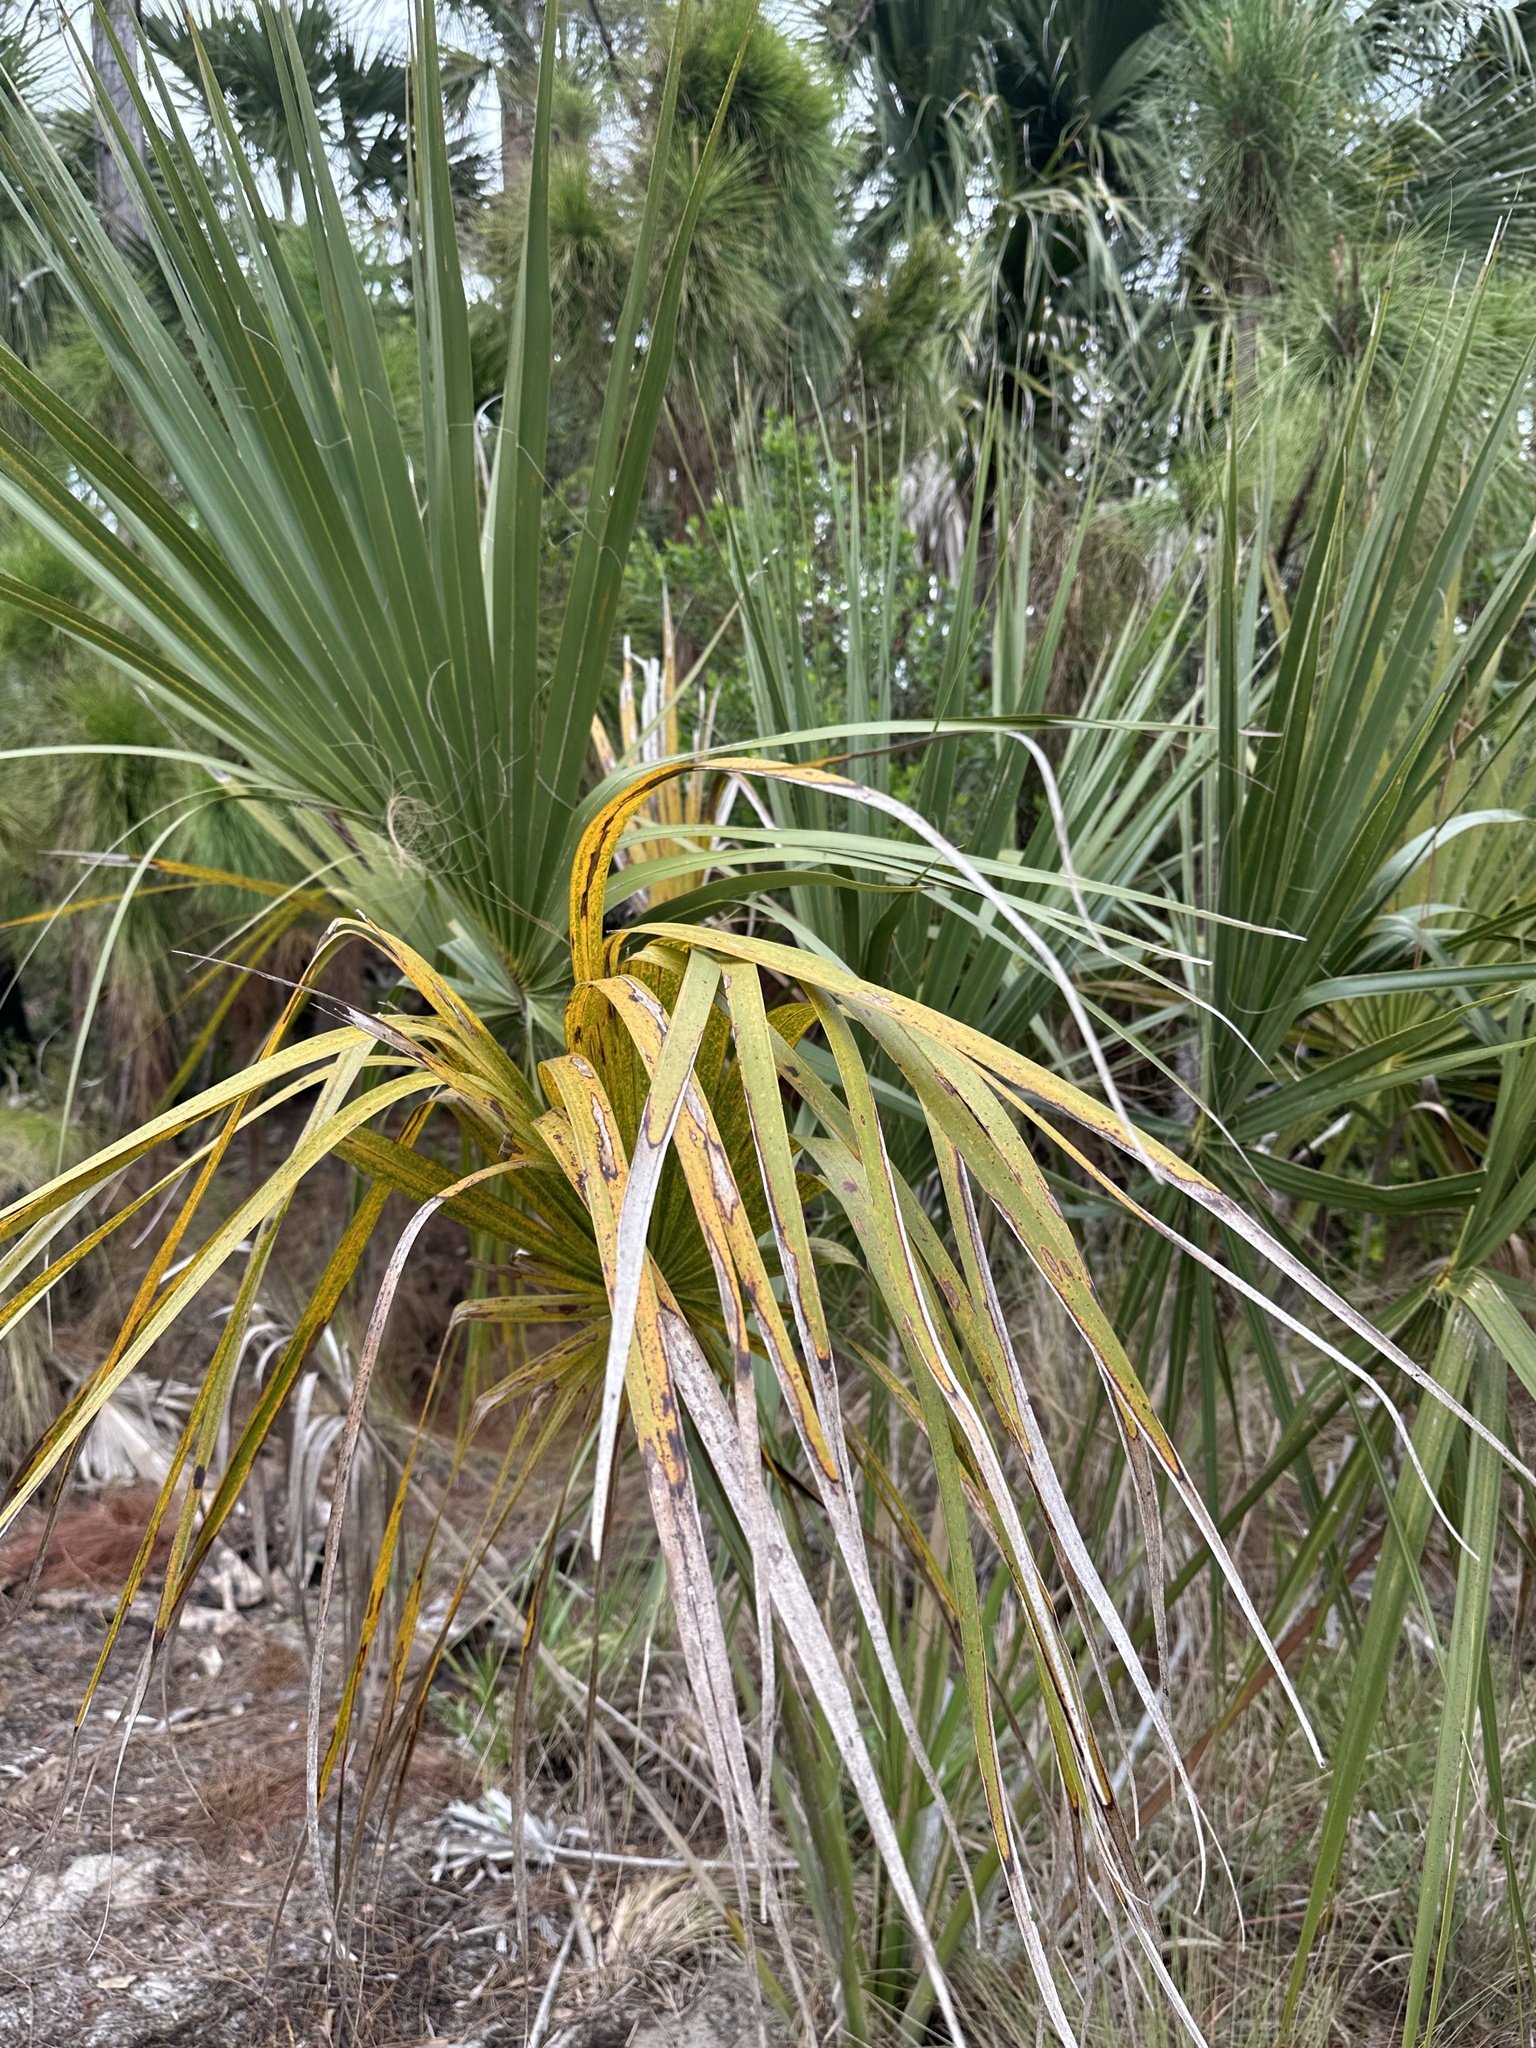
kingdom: Plantae
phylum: Tracheophyta
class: Liliopsida
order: Arecales
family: Arecaceae
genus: Sabal
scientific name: Sabal palmetto
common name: Blue palmetto
